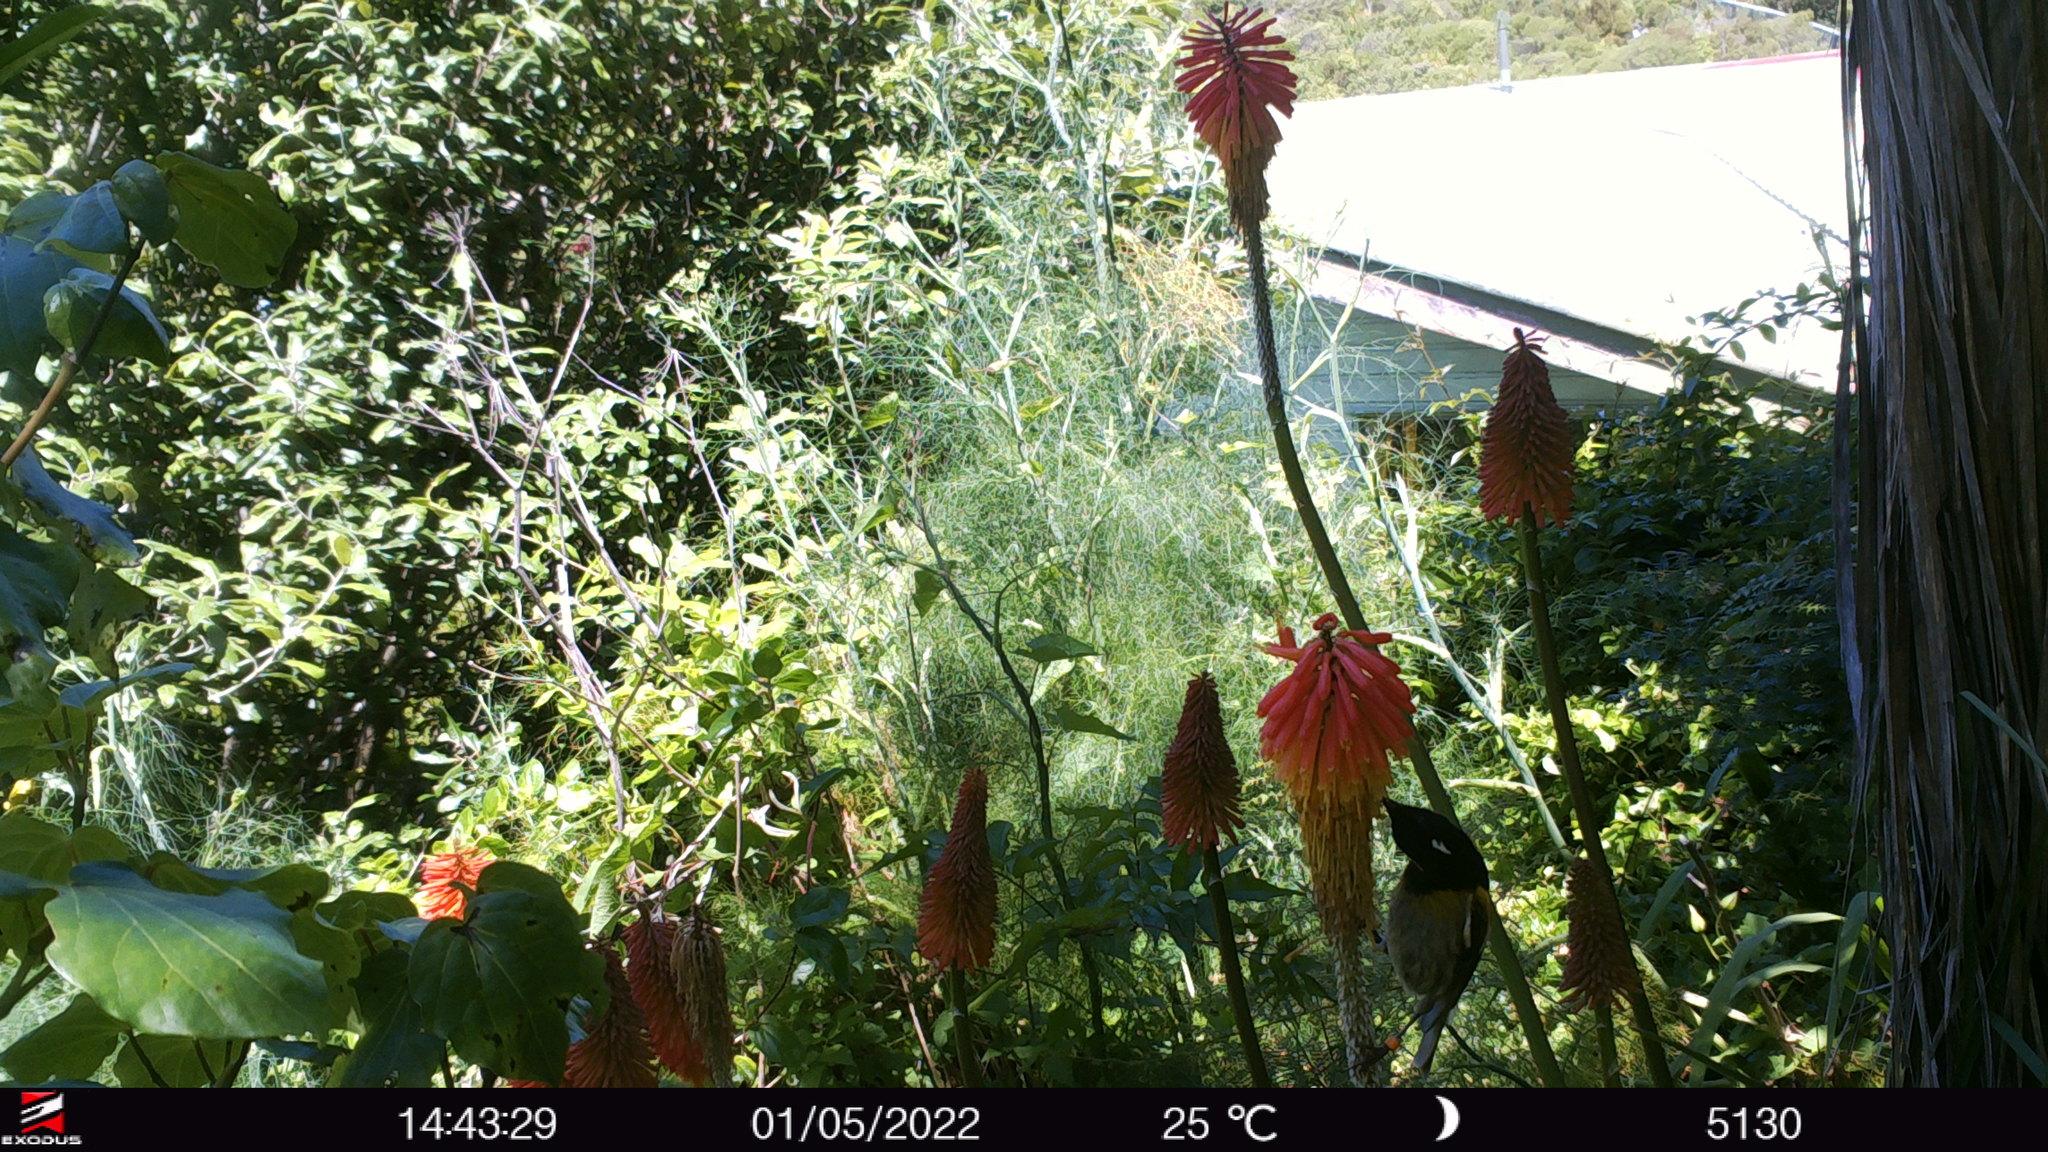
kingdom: Animalia
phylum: Chordata
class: Aves
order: Passeriformes
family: Notiomystidae
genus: Notiomystis
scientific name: Notiomystis cincta
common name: Stitchbird
